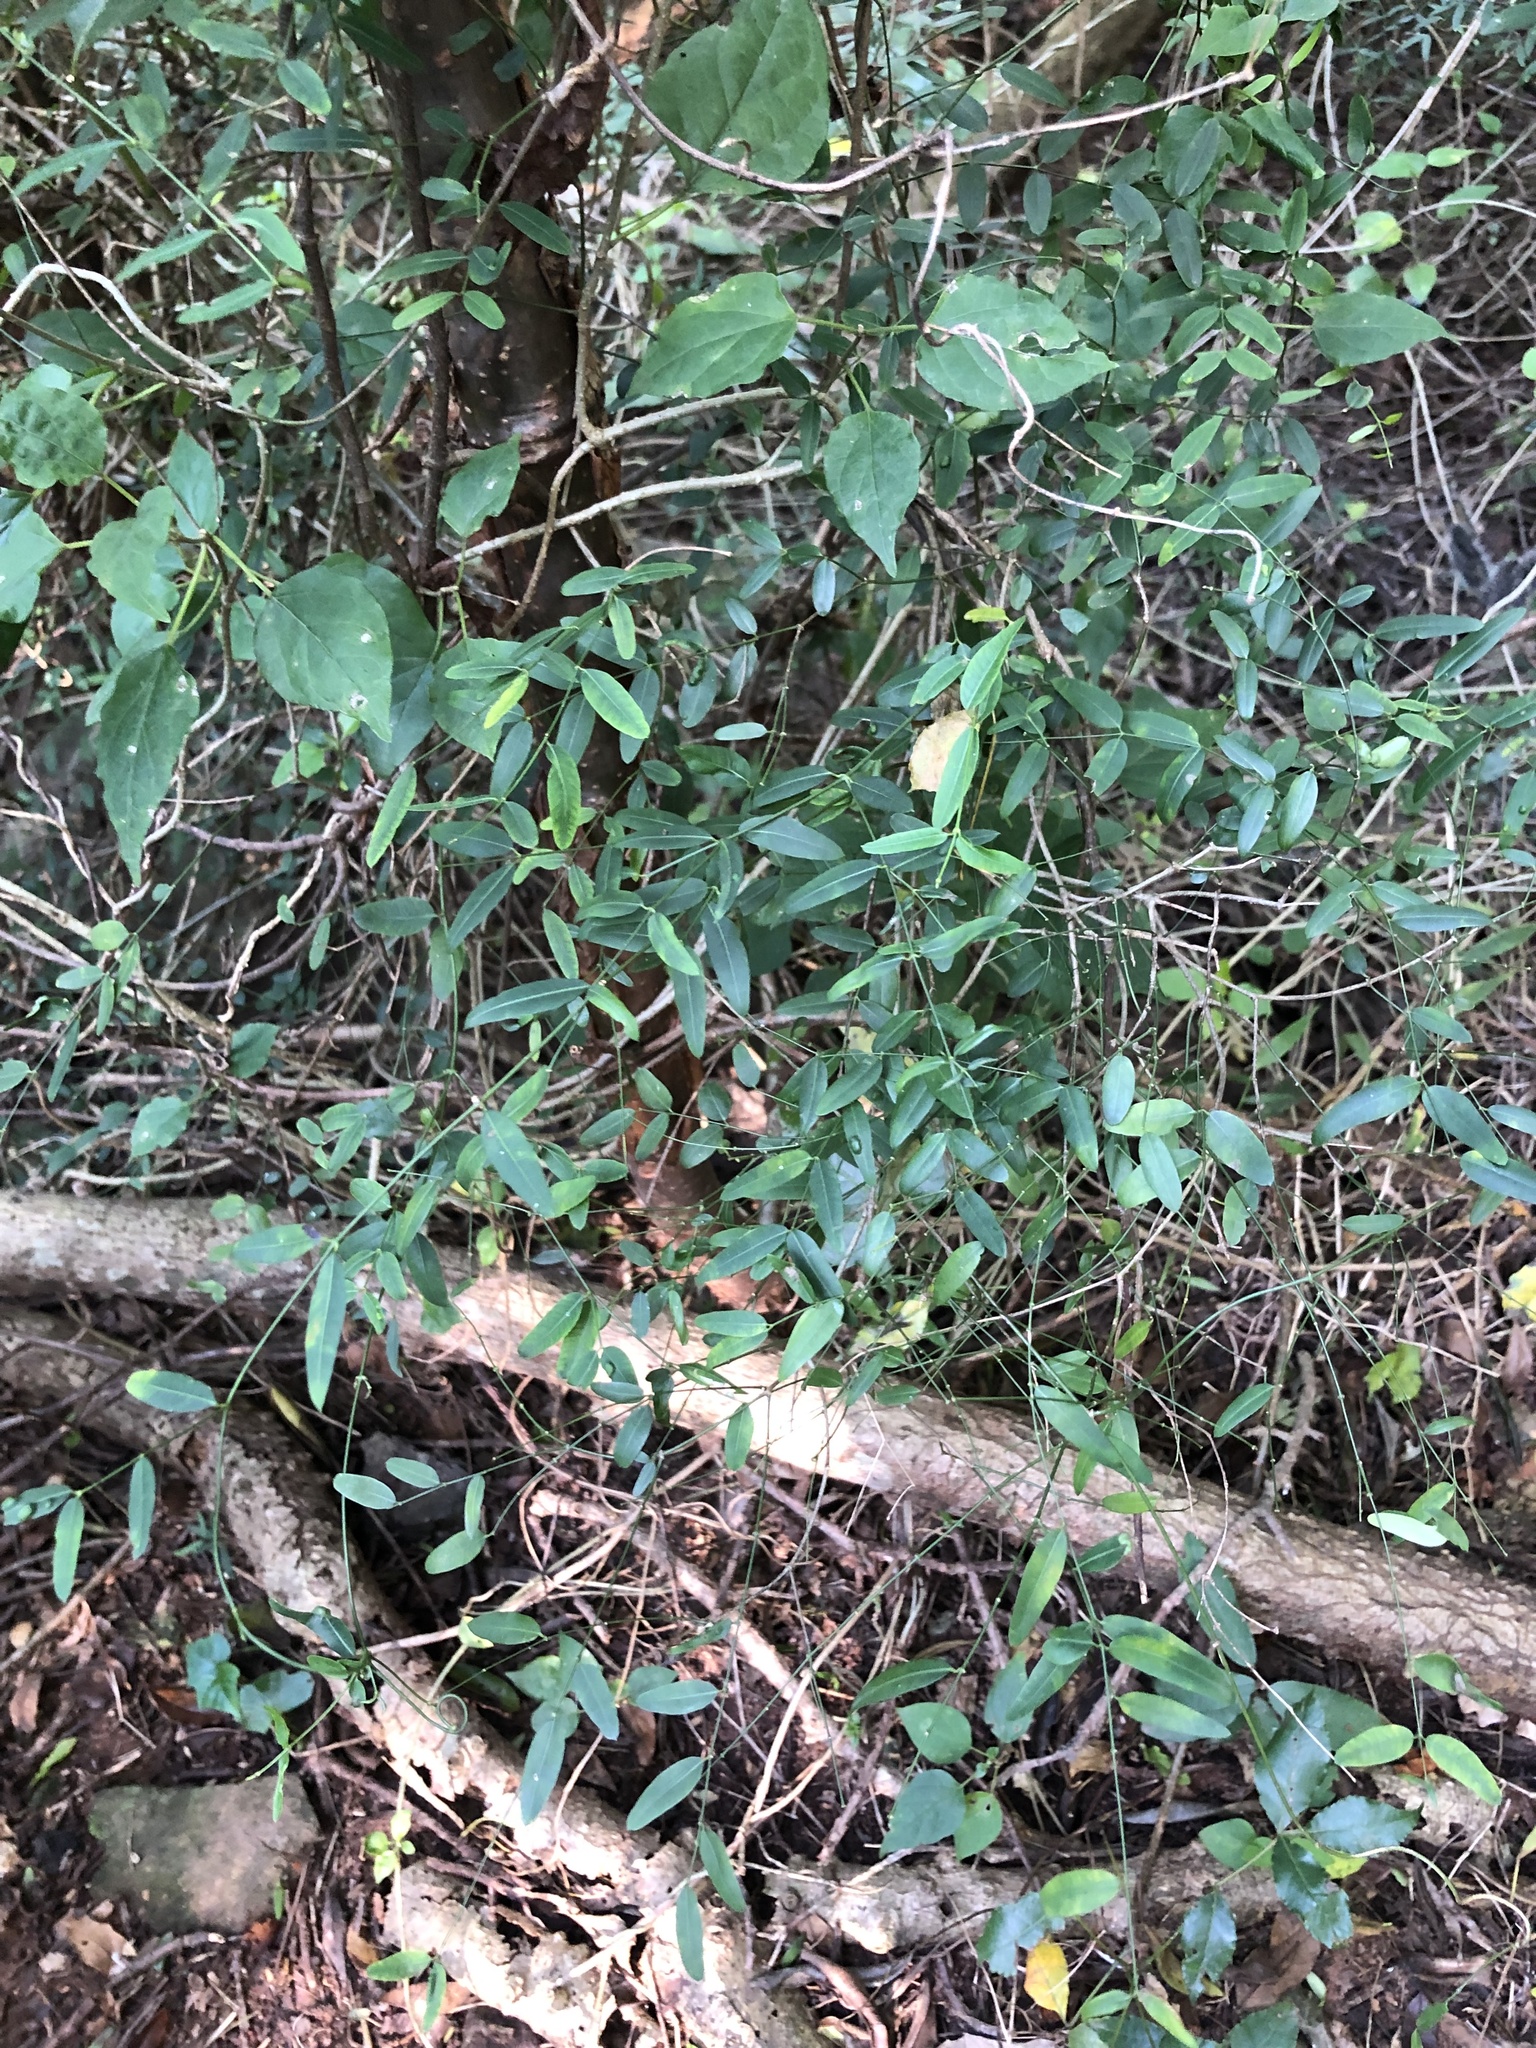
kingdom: Plantae
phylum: Tracheophyta
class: Magnoliopsida
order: Gentianales
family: Apocynaceae
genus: Secamone
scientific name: Secamone filiformis
